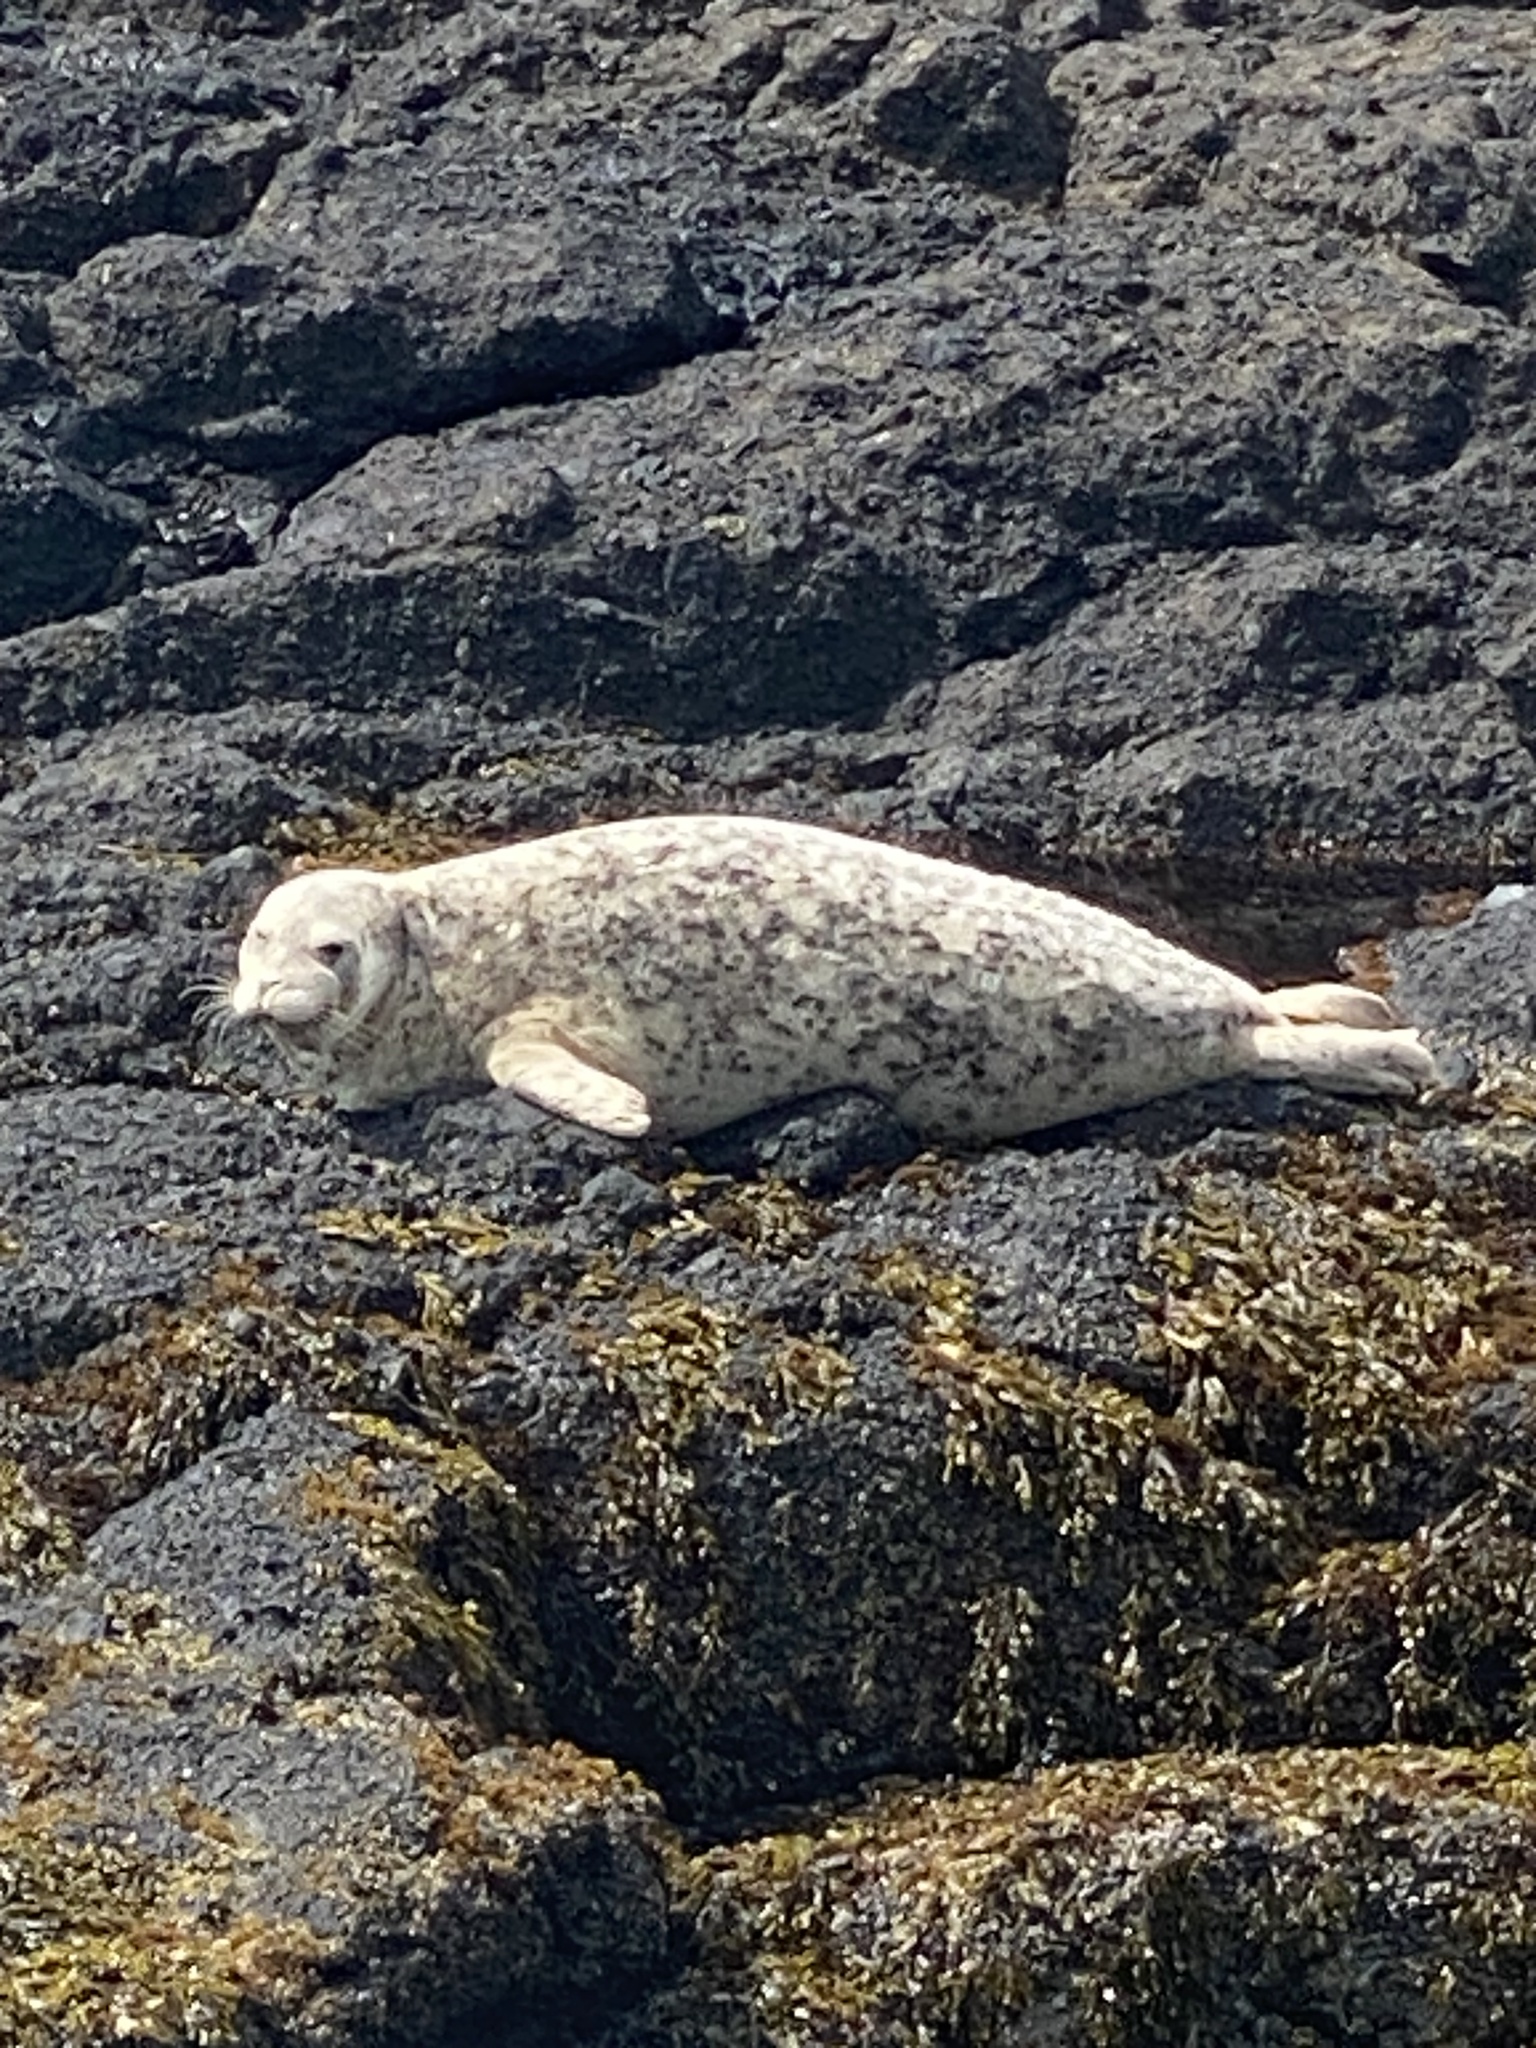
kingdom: Animalia
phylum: Chordata
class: Mammalia
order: Carnivora
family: Phocidae
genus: Phoca
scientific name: Phoca vitulina
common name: Harbor seal
